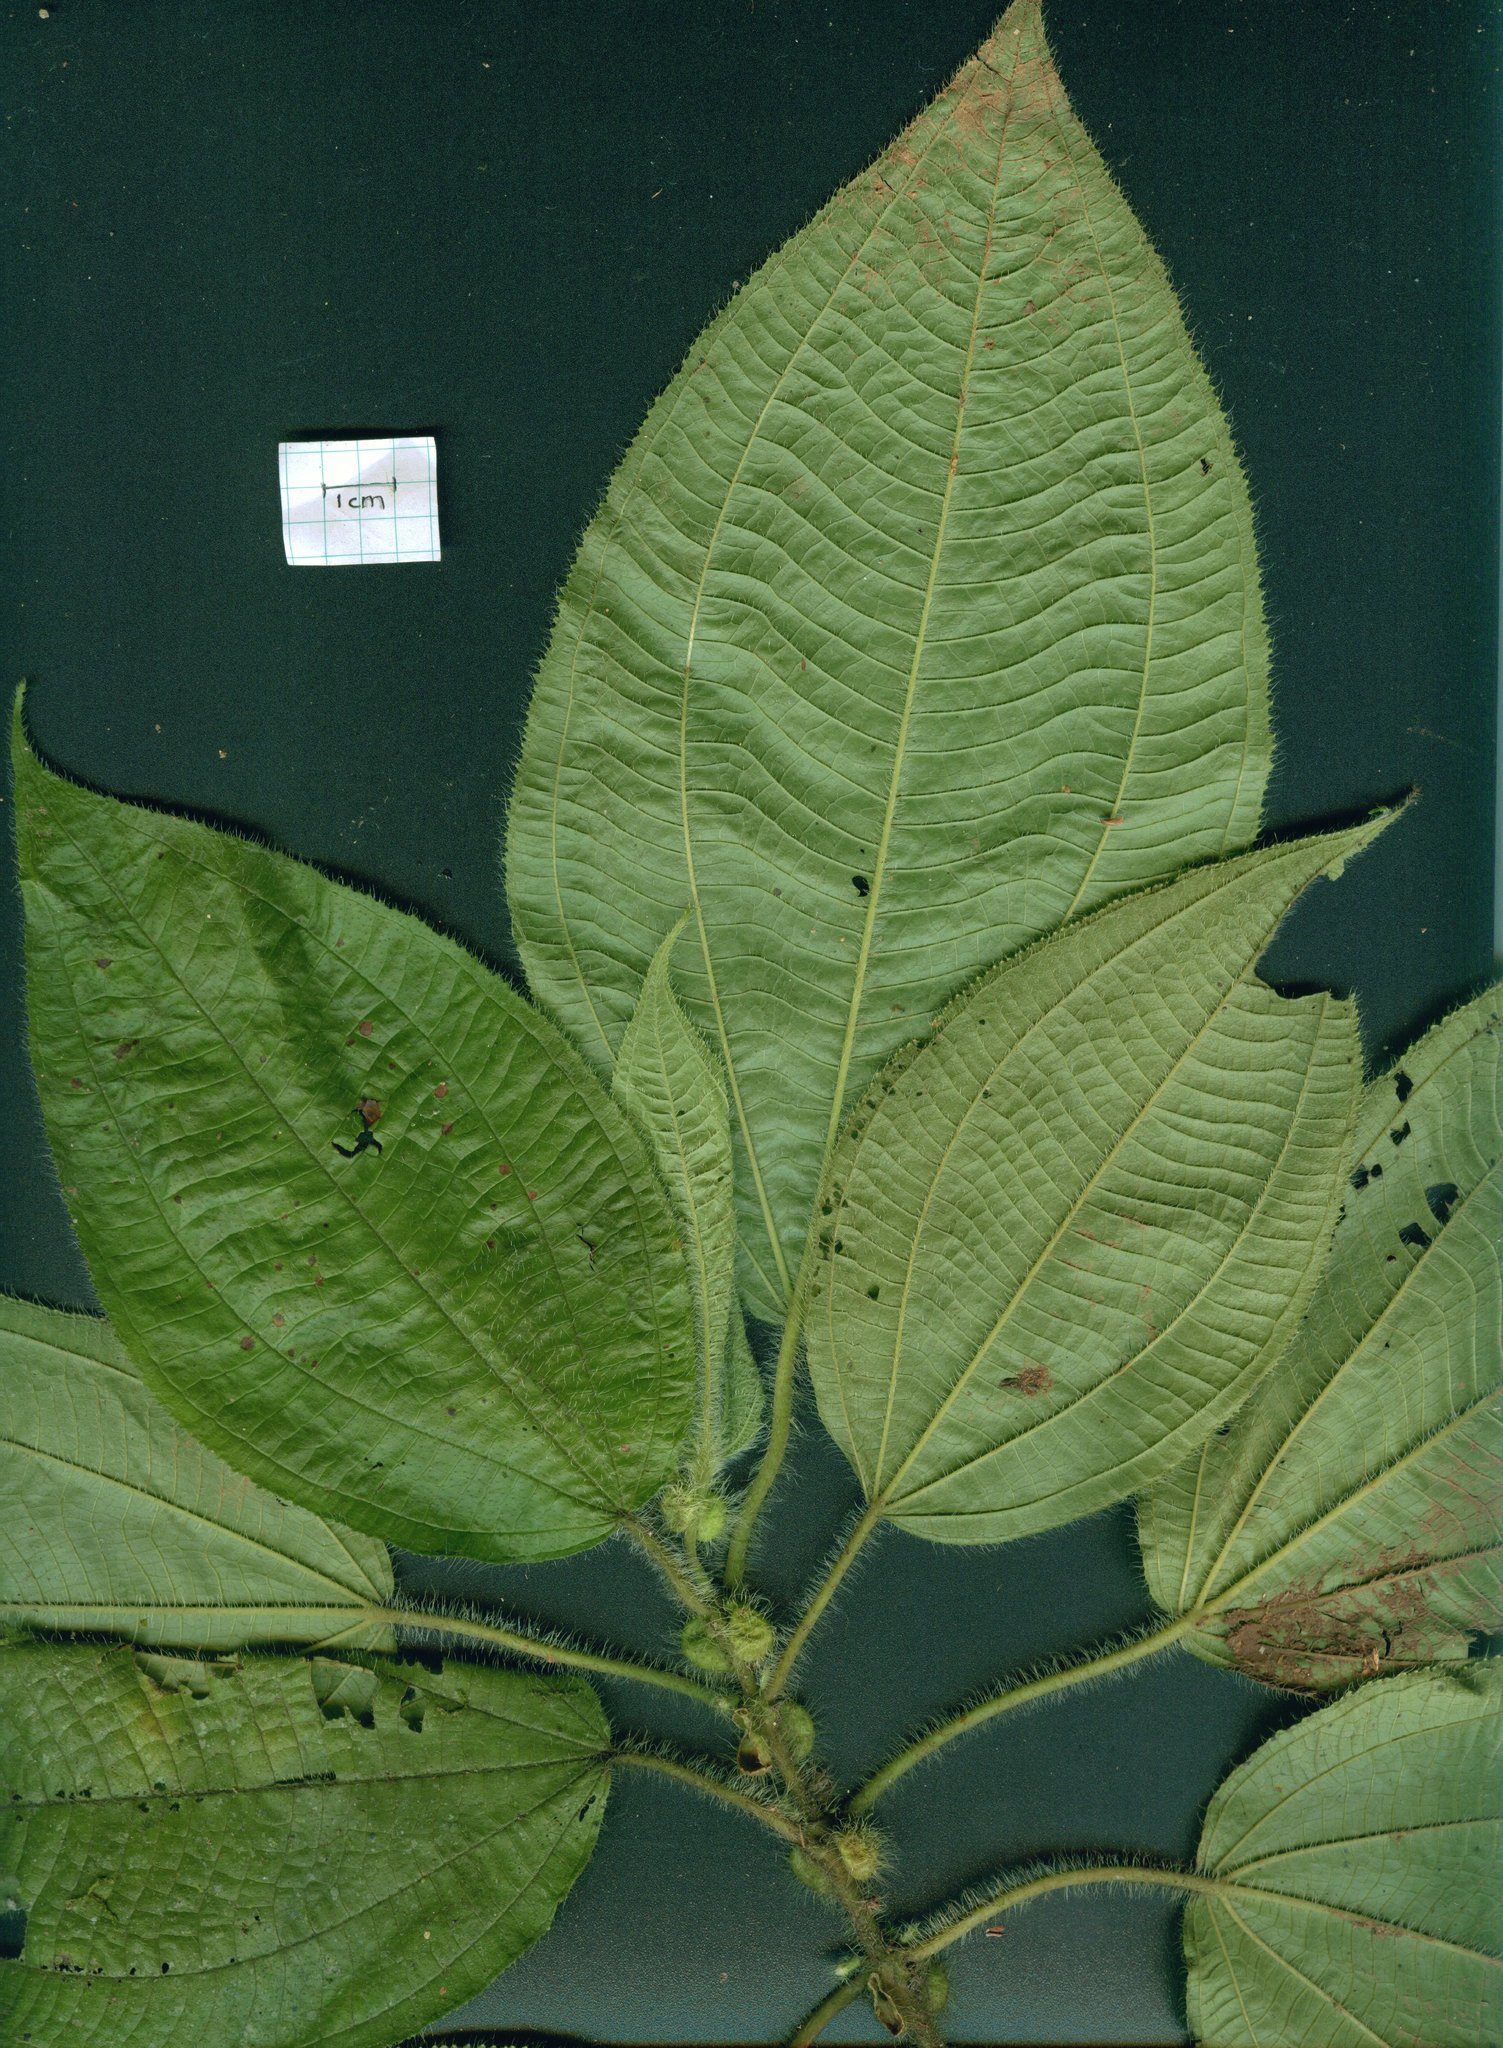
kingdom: Plantae
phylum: Tracheophyta
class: Magnoliopsida
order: Myrtales
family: Melastomataceae
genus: Miconia
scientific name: Miconia crenulata
